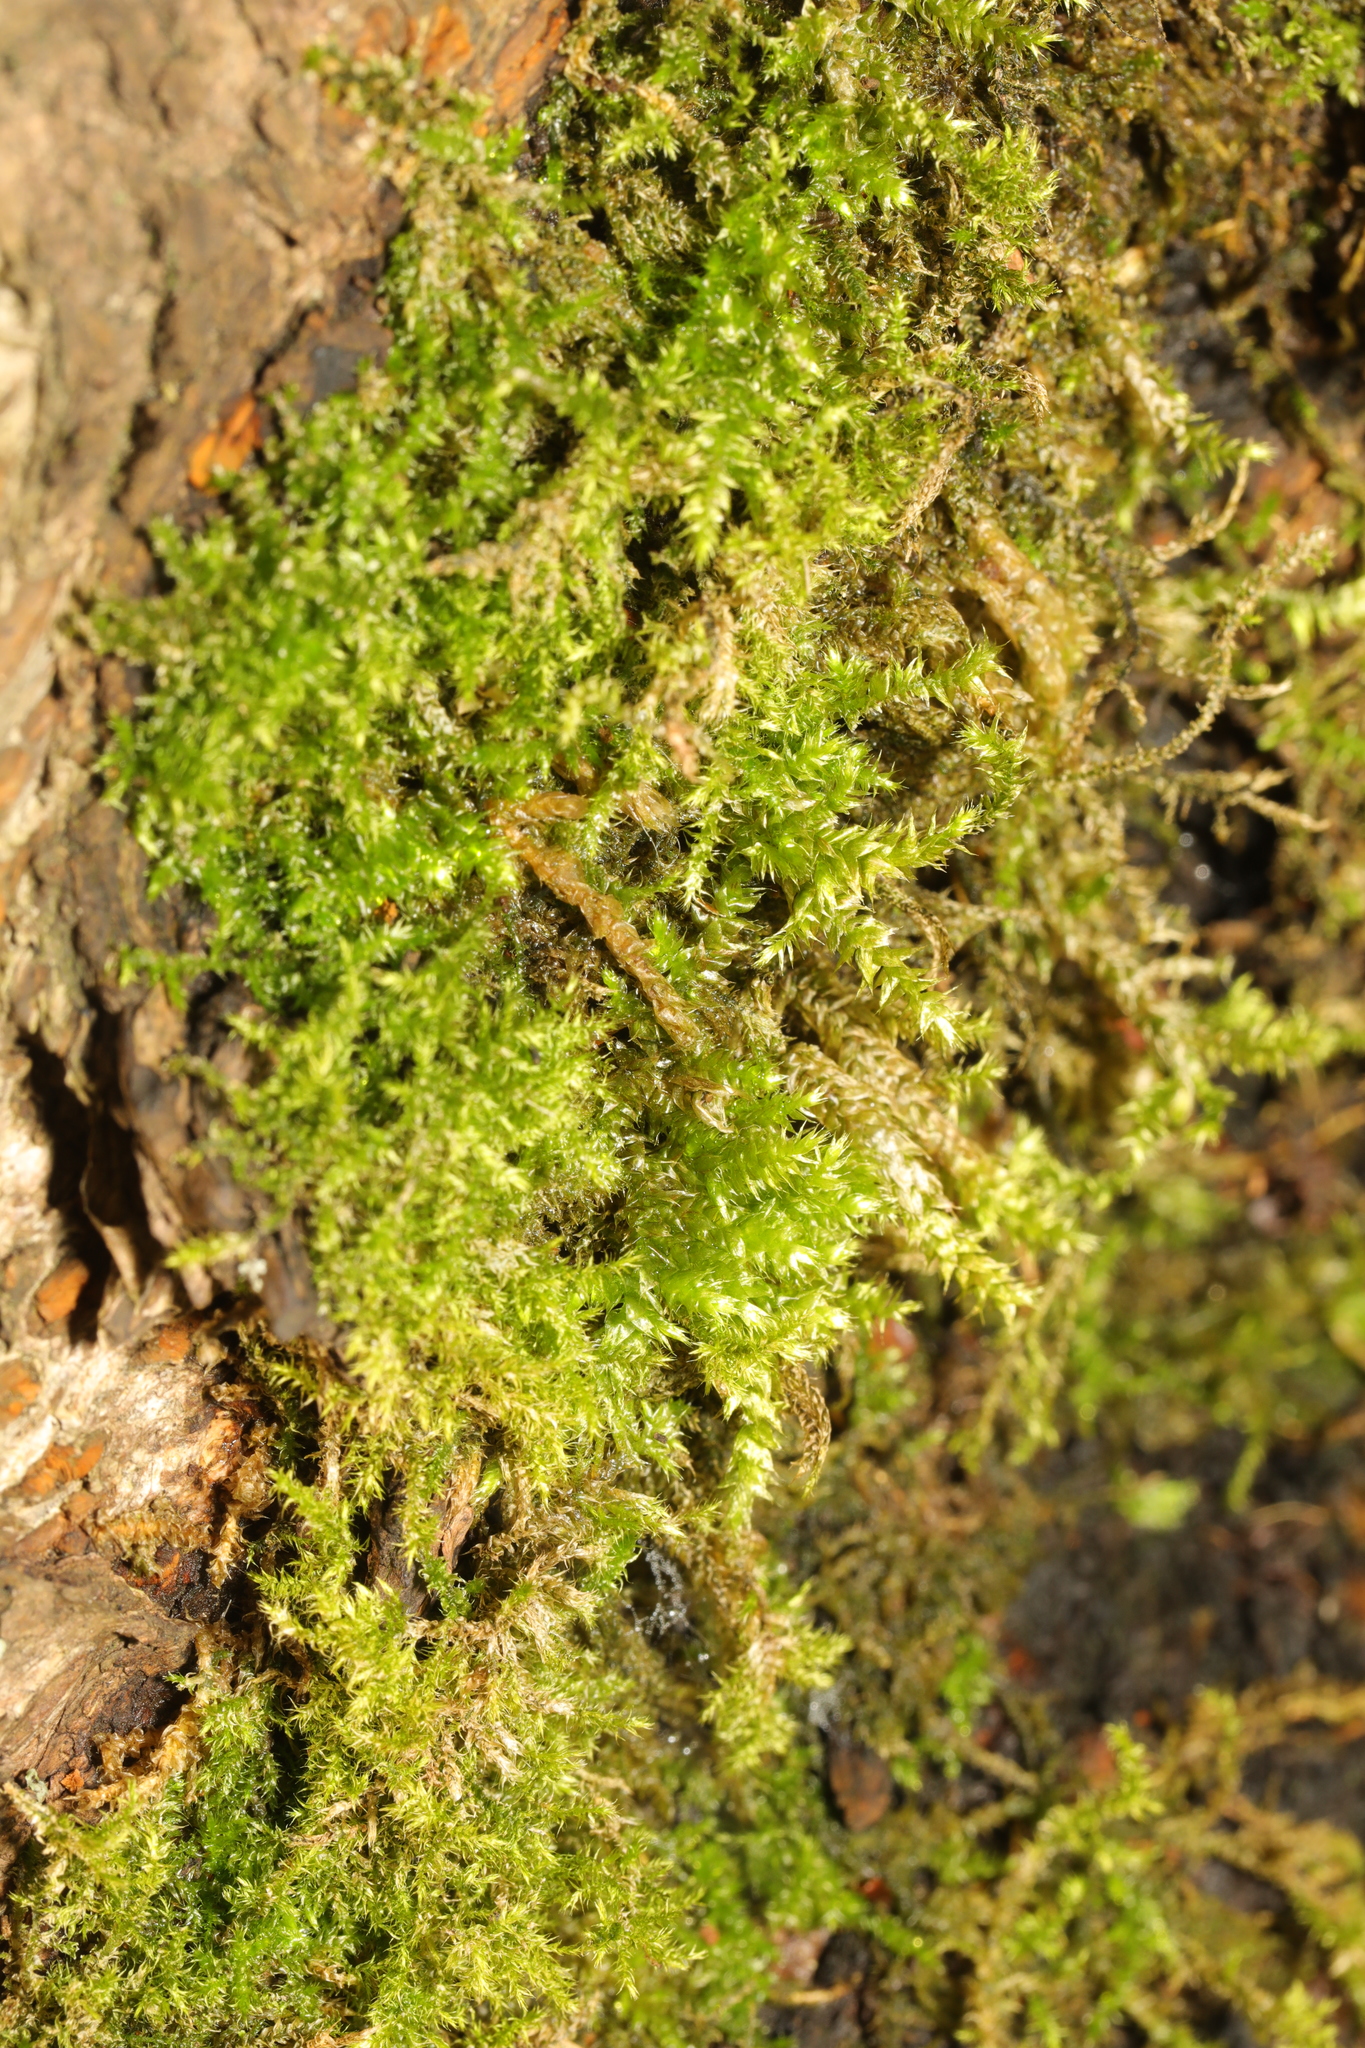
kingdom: Plantae
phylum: Bryophyta
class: Bryopsida
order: Hypnales
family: Brachytheciaceae
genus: Brachythecium
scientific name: Brachythecium rutabulum
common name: Rough-stalked feather-moss
